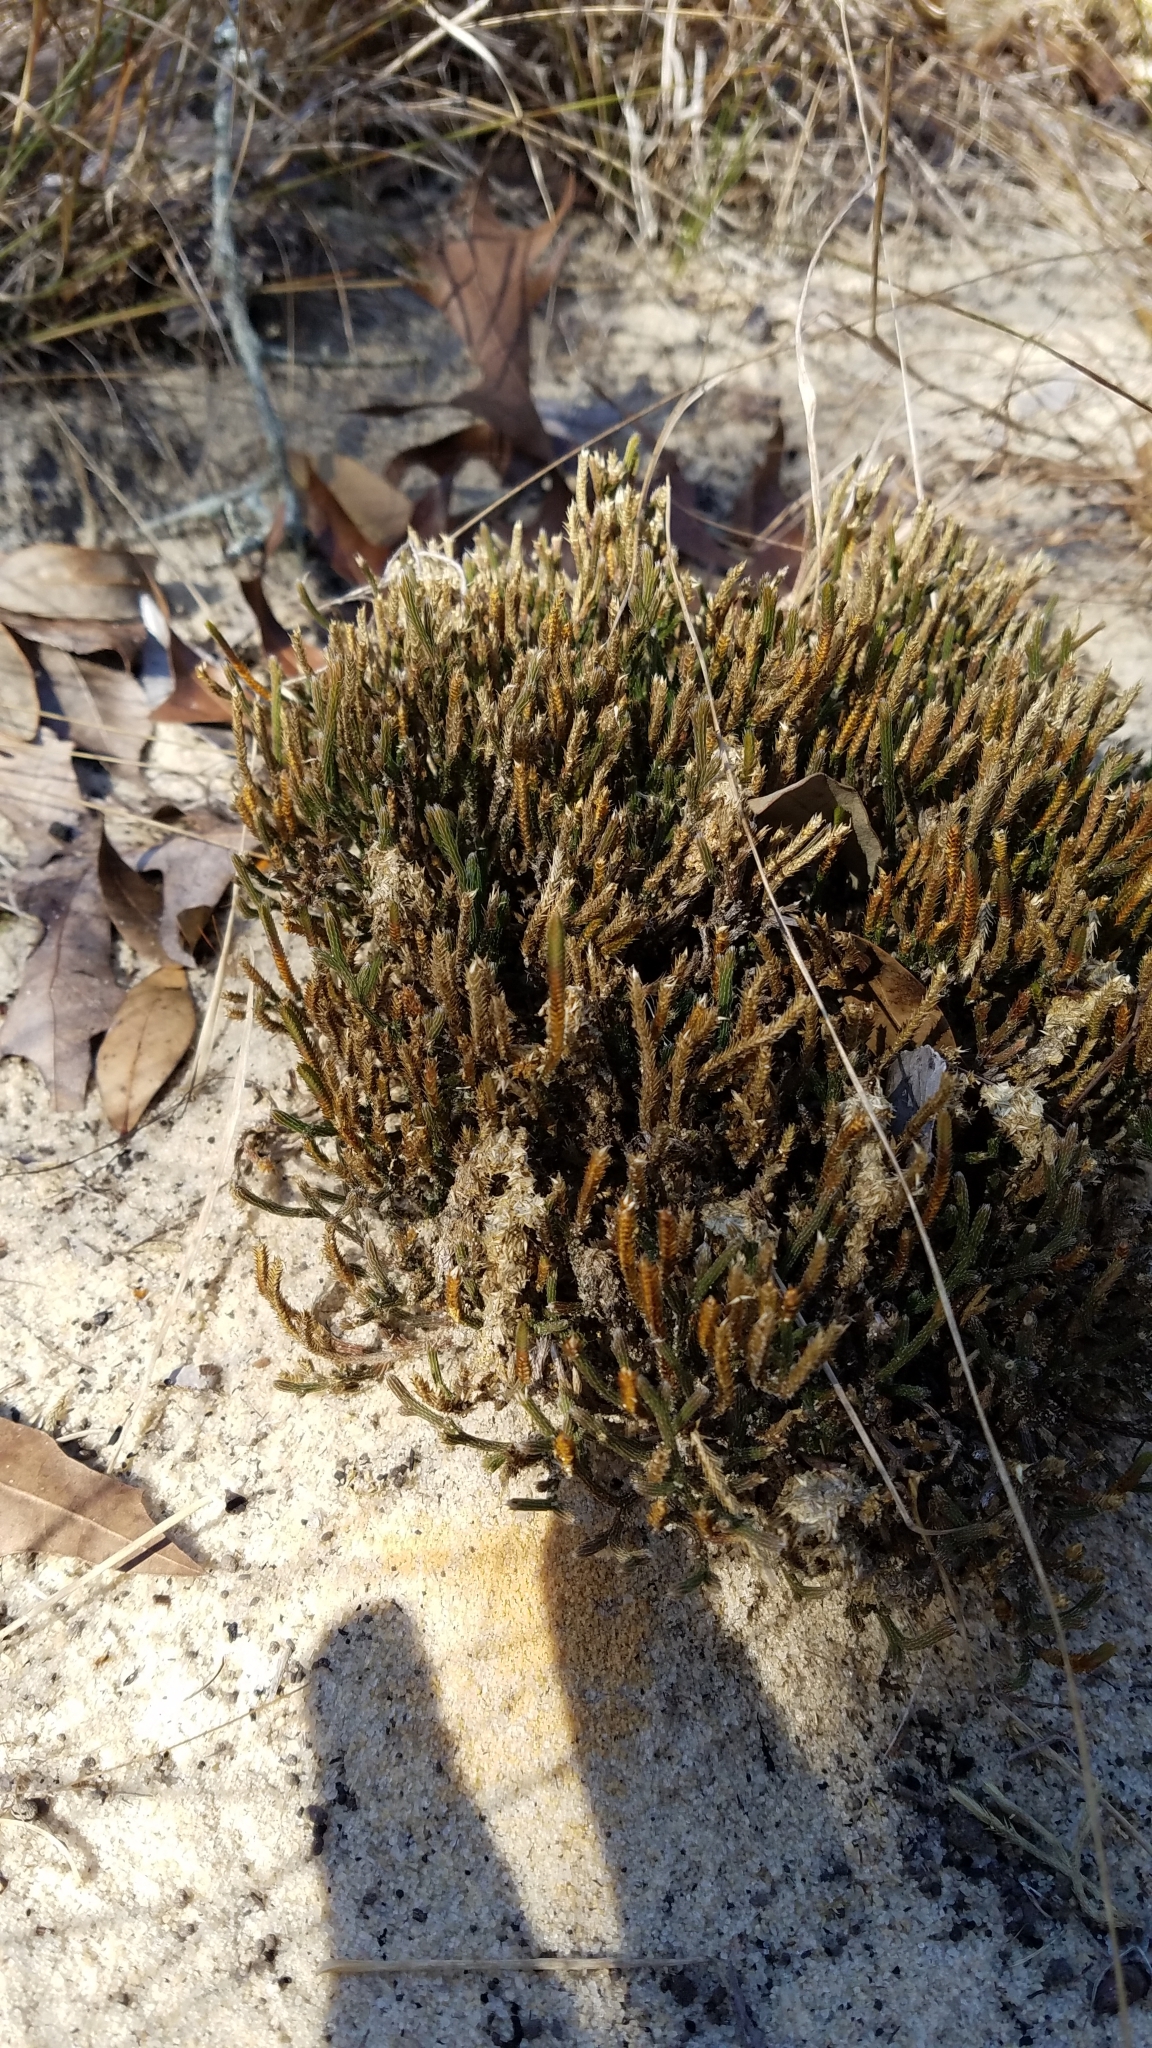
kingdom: Plantae
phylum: Tracheophyta
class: Lycopodiopsida
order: Selaginellales
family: Selaginellaceae
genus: Selaginella
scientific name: Selaginella arenicola
